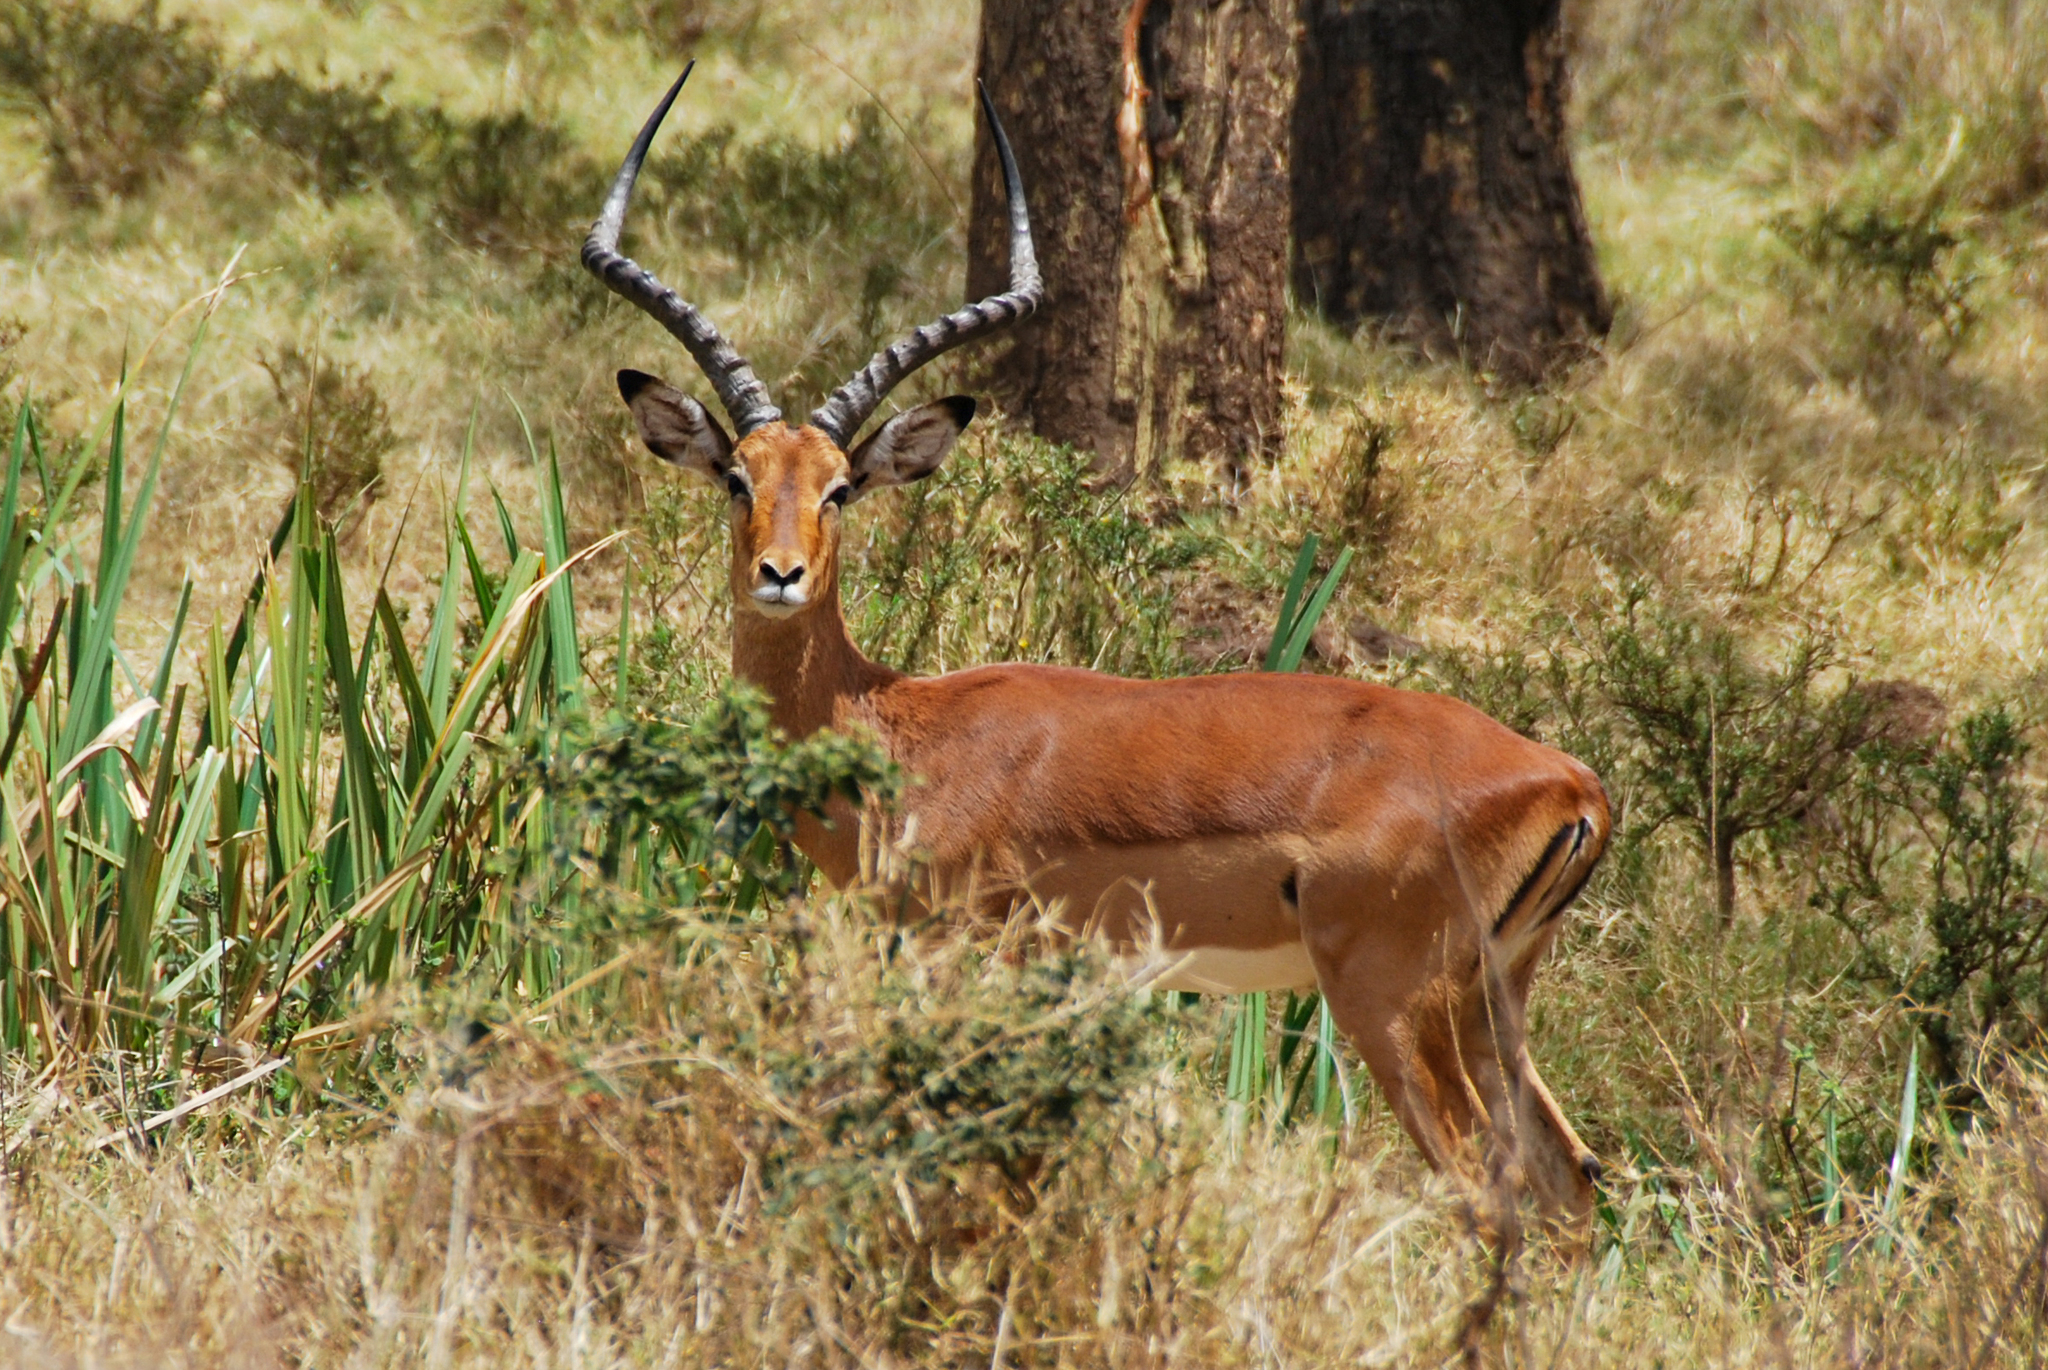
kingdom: Animalia
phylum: Chordata
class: Mammalia
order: Artiodactyla
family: Bovidae
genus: Aepyceros
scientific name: Aepyceros melampus
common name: Impala
